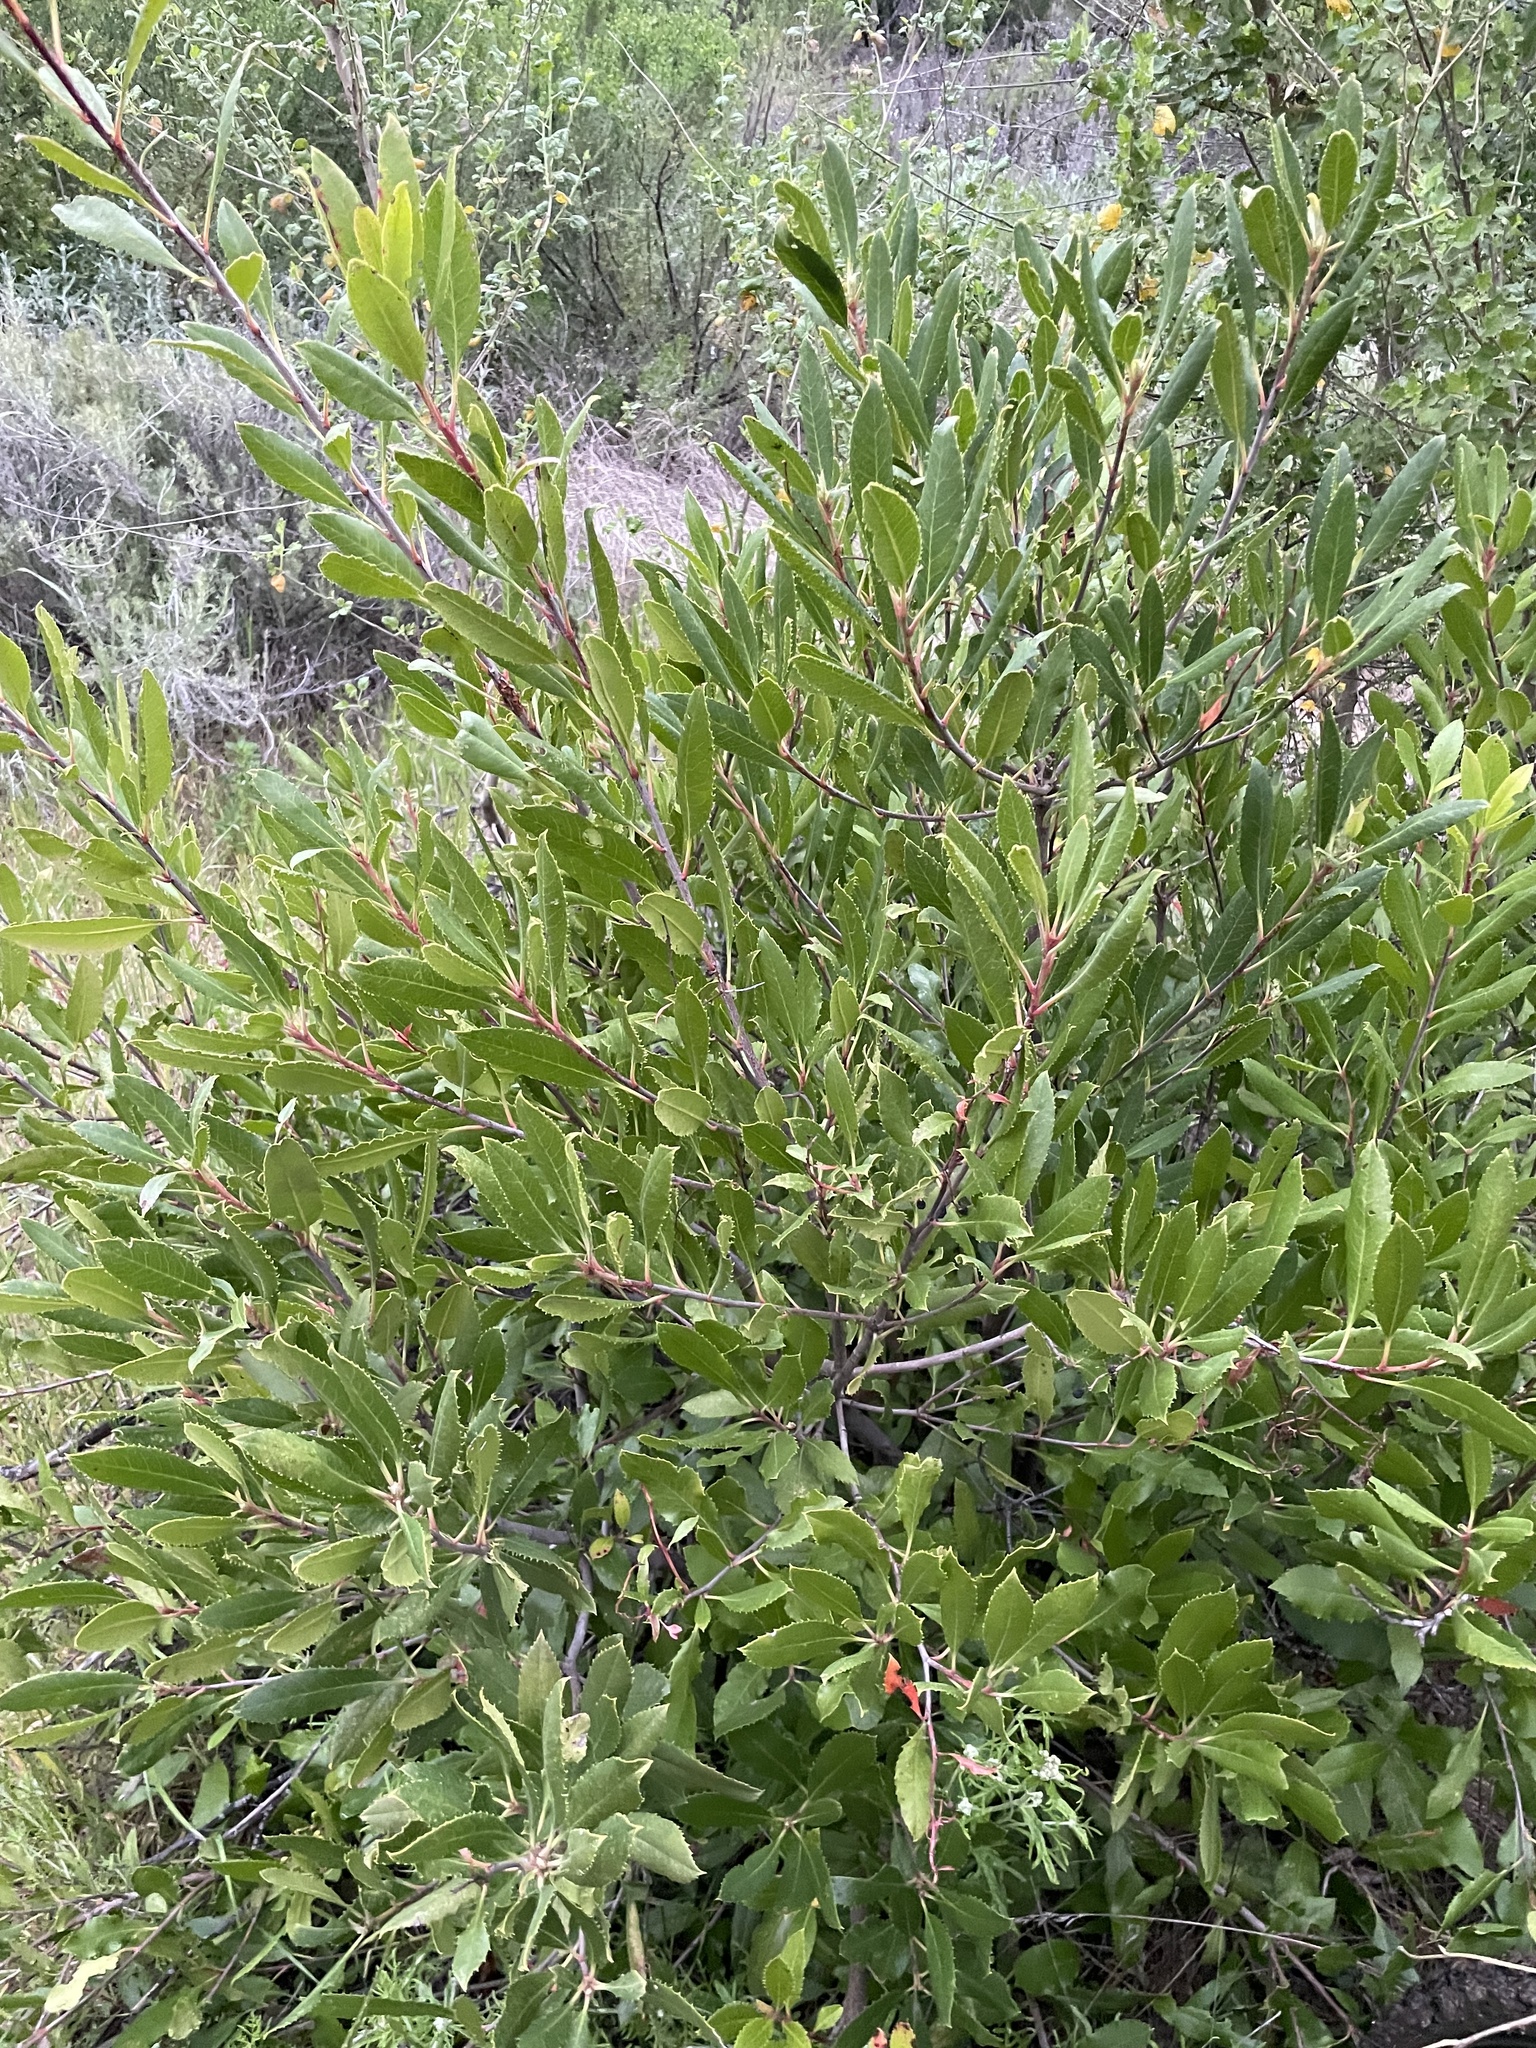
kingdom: Plantae
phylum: Tracheophyta
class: Magnoliopsida
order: Rosales
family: Rosaceae
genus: Heteromeles
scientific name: Heteromeles arbutifolia
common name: California-holly
